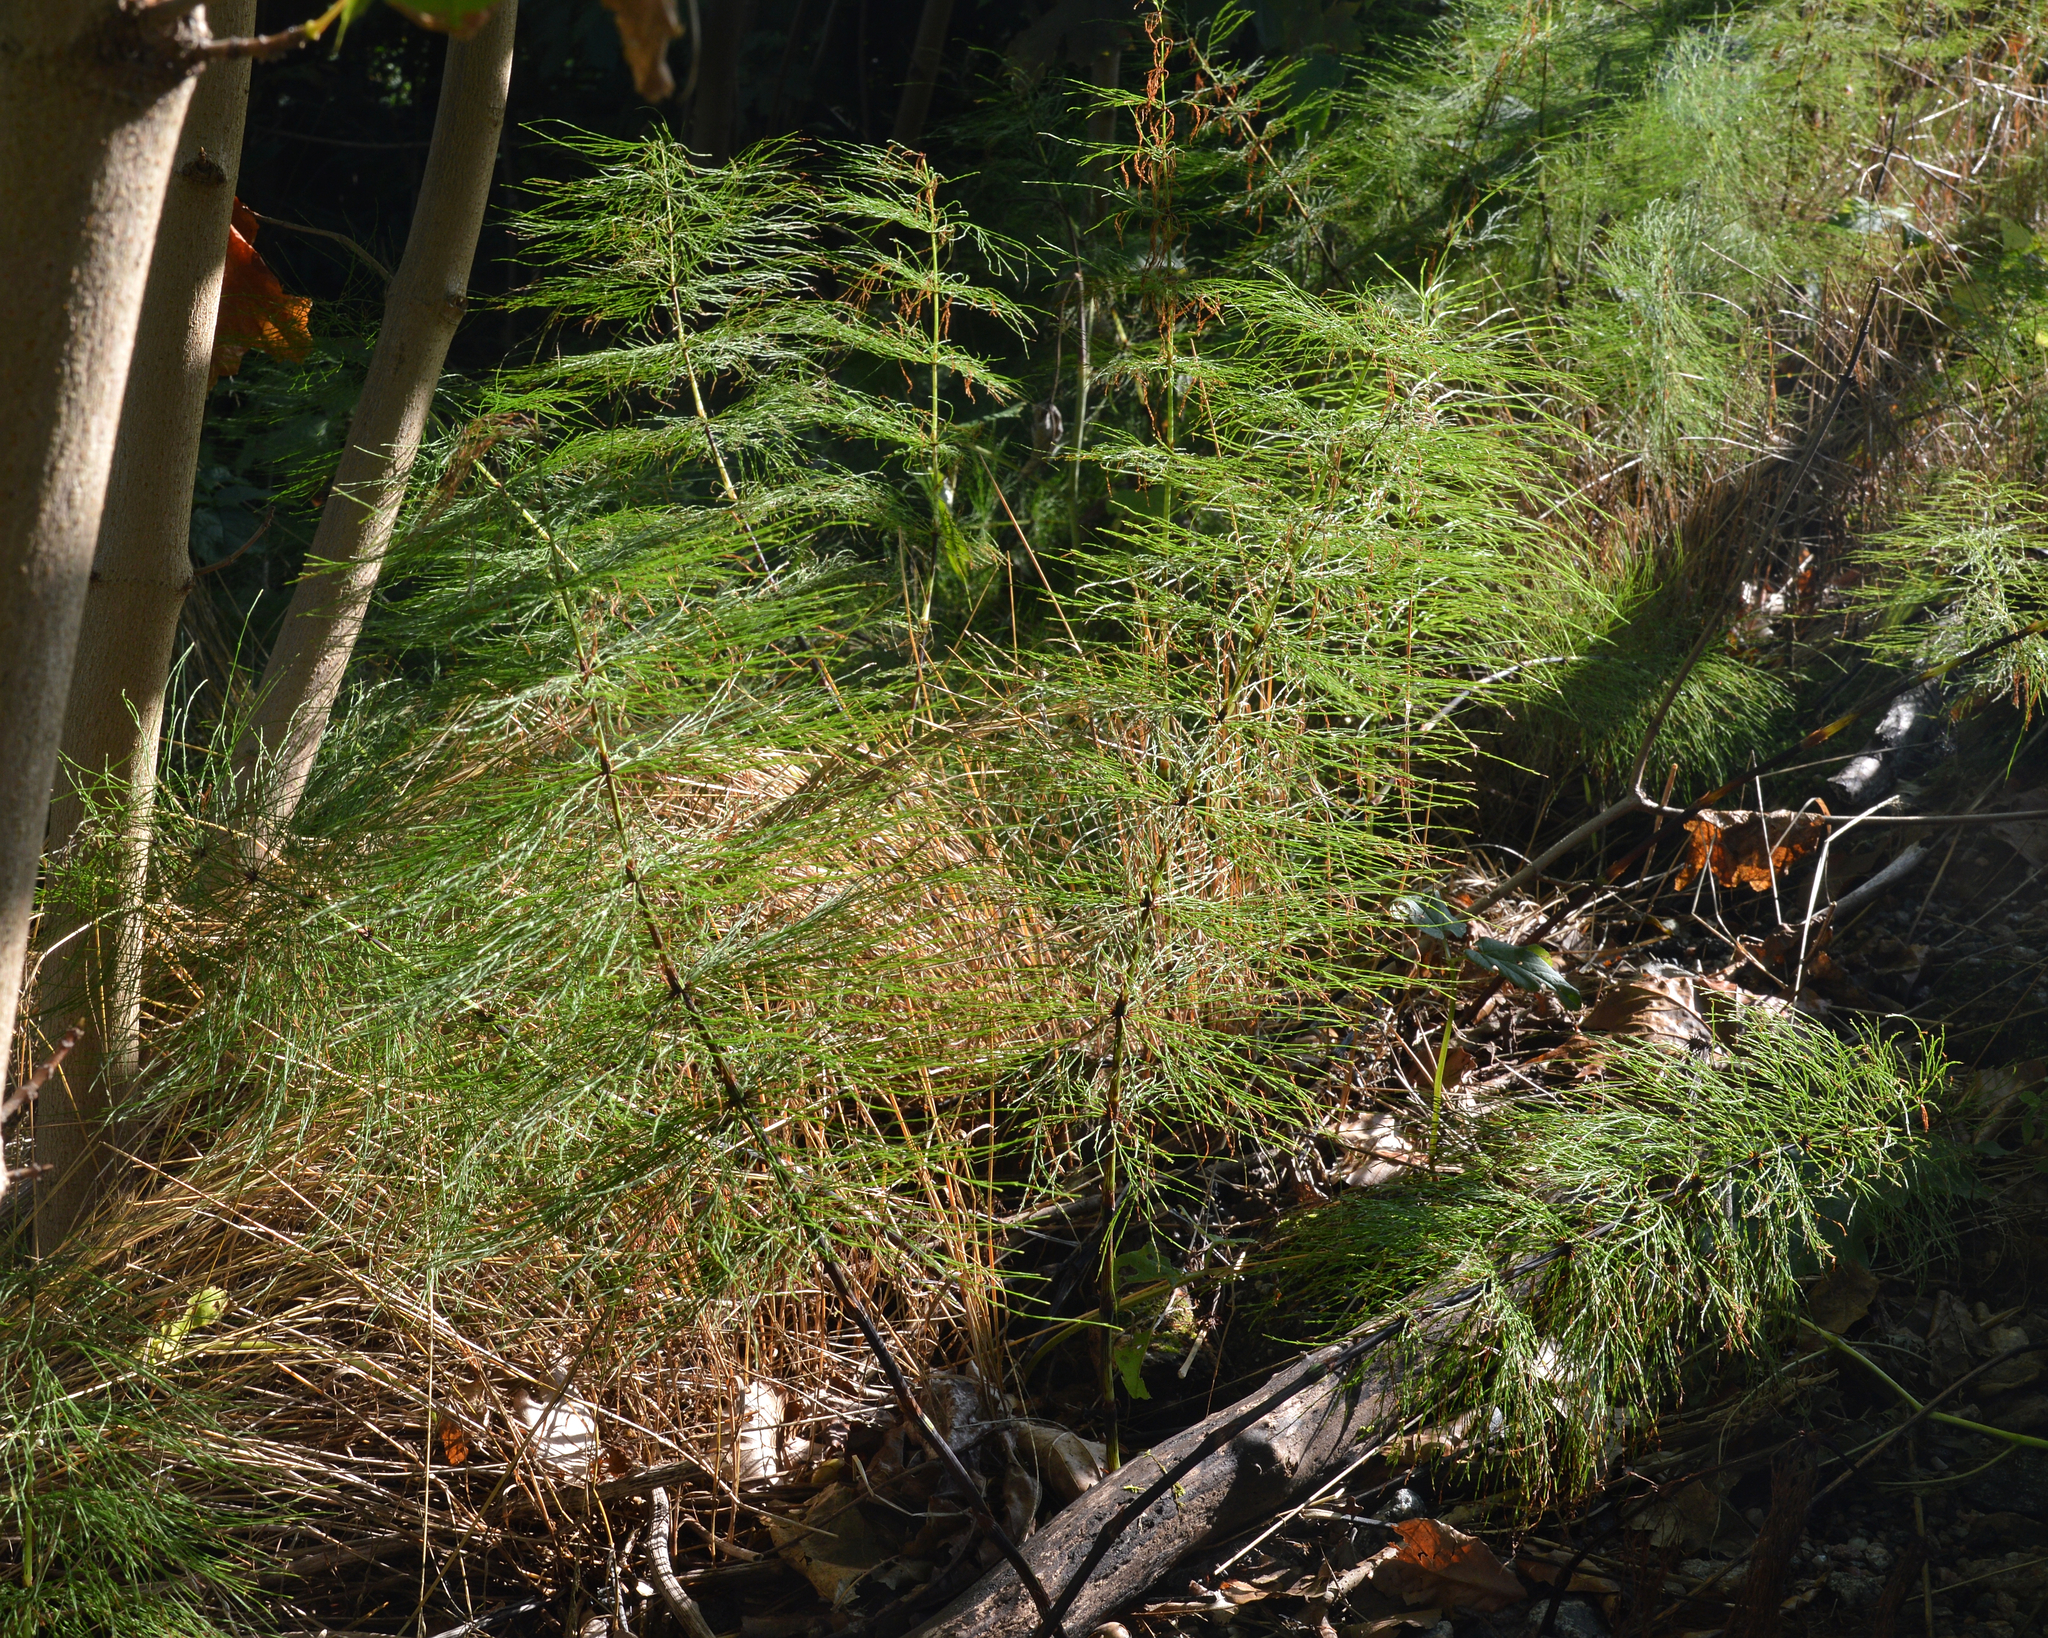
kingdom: Plantae
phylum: Tracheophyta
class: Polypodiopsida
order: Equisetales
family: Equisetaceae
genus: Equisetum
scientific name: Equisetum sylvaticum
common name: Wood horsetail
